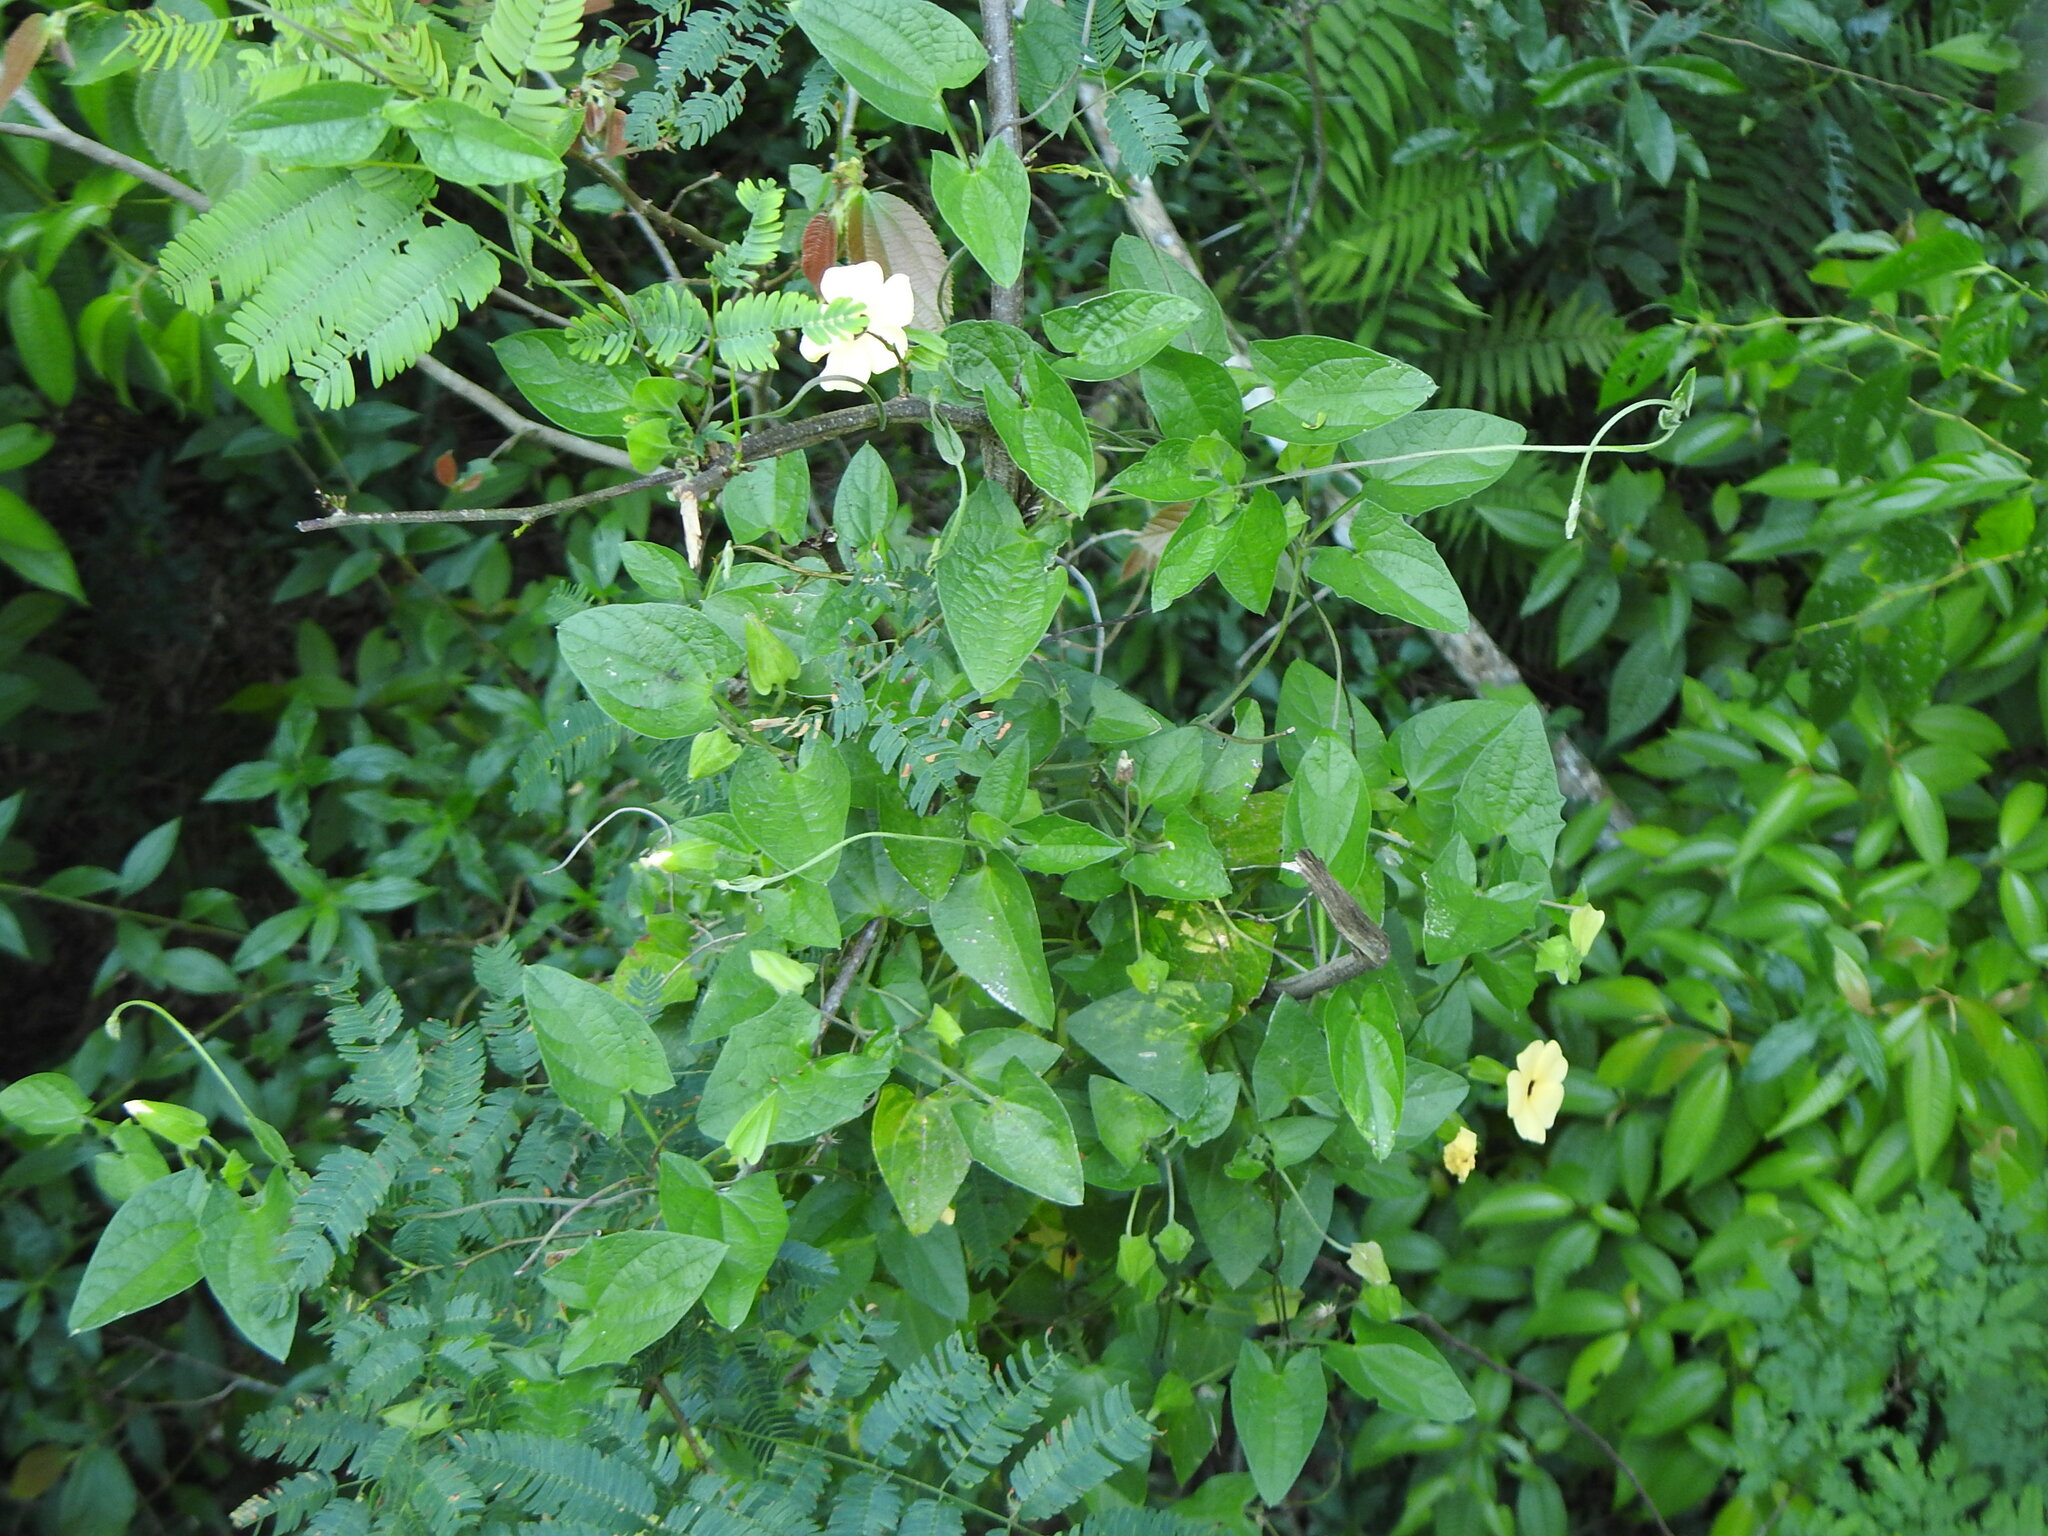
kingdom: Plantae
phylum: Tracheophyta
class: Magnoliopsida
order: Lamiales
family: Acanthaceae
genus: Thunbergia
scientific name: Thunbergia alata
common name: Blackeyed susan vine
